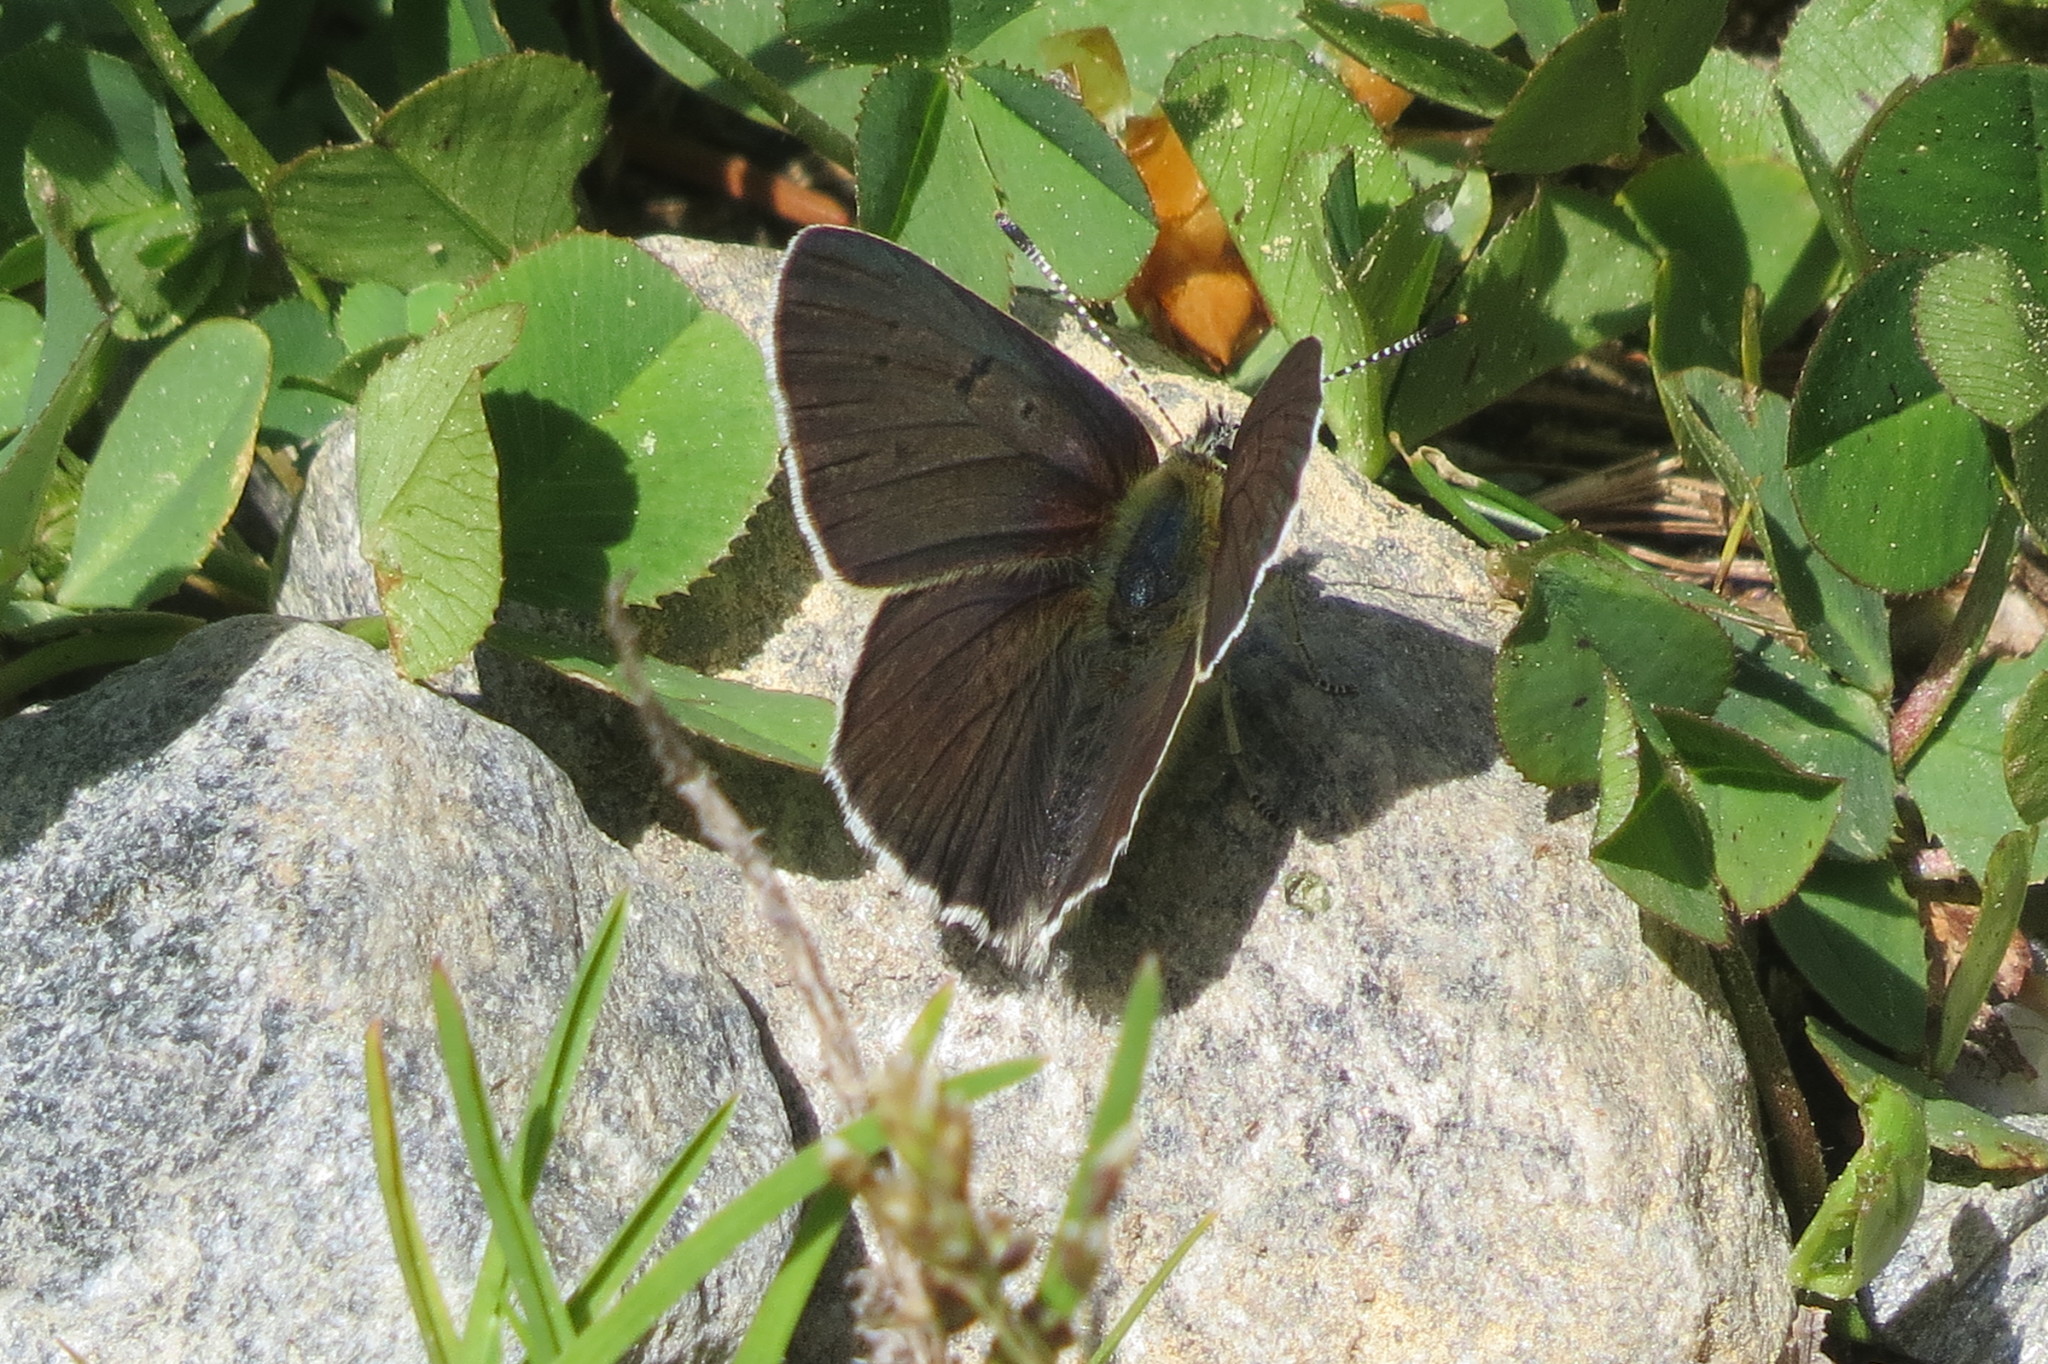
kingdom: Animalia
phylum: Arthropoda
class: Insecta
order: Lepidoptera
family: Lycaenidae
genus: Loweia
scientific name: Loweia tityrus
